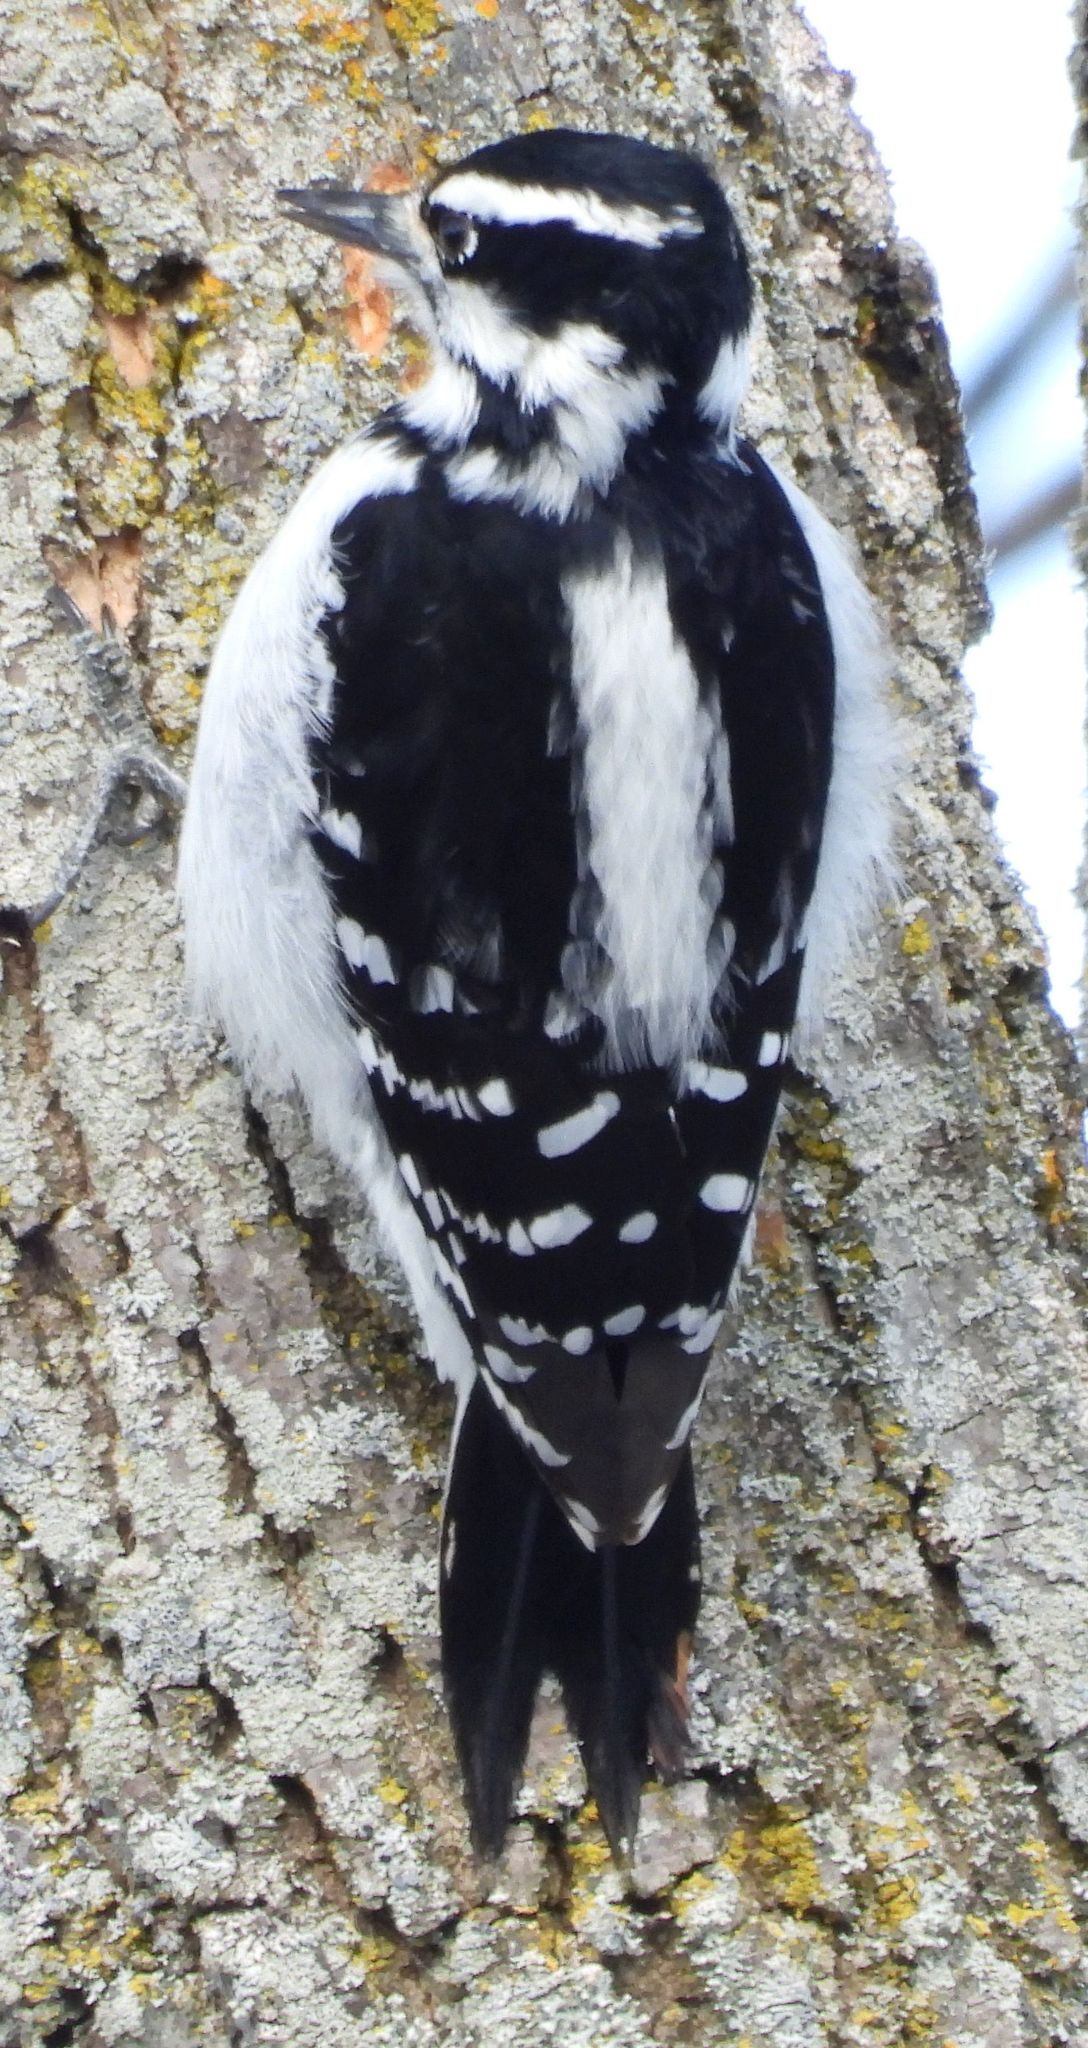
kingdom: Animalia
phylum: Chordata
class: Aves
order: Piciformes
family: Picidae
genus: Leuconotopicus
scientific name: Leuconotopicus villosus
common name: Hairy woodpecker
